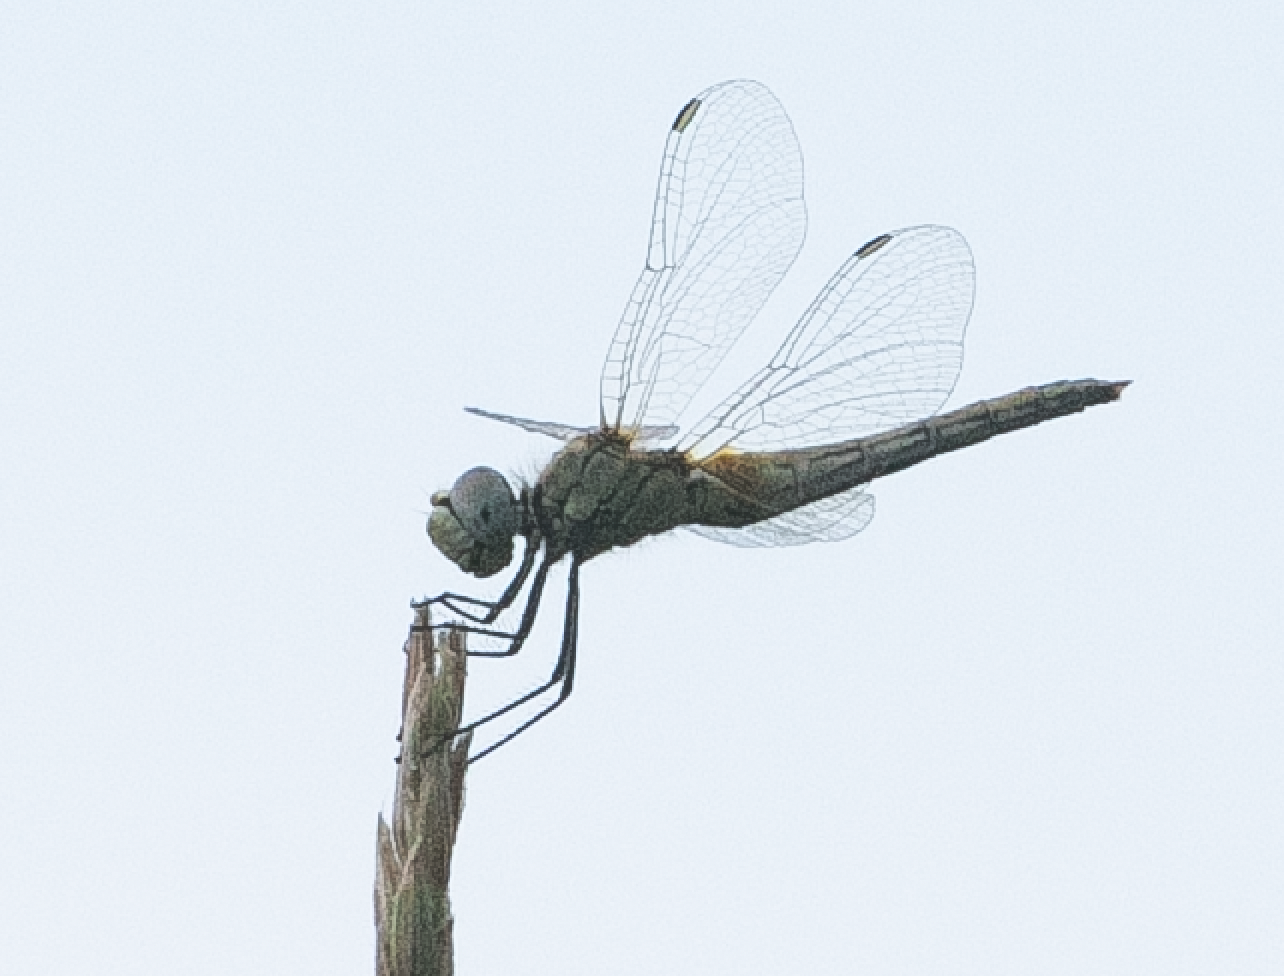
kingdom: Animalia
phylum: Arthropoda
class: Insecta
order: Odonata
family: Libellulidae
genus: Sympetrum
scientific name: Sympetrum fonscolombii
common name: Red-veined darter
